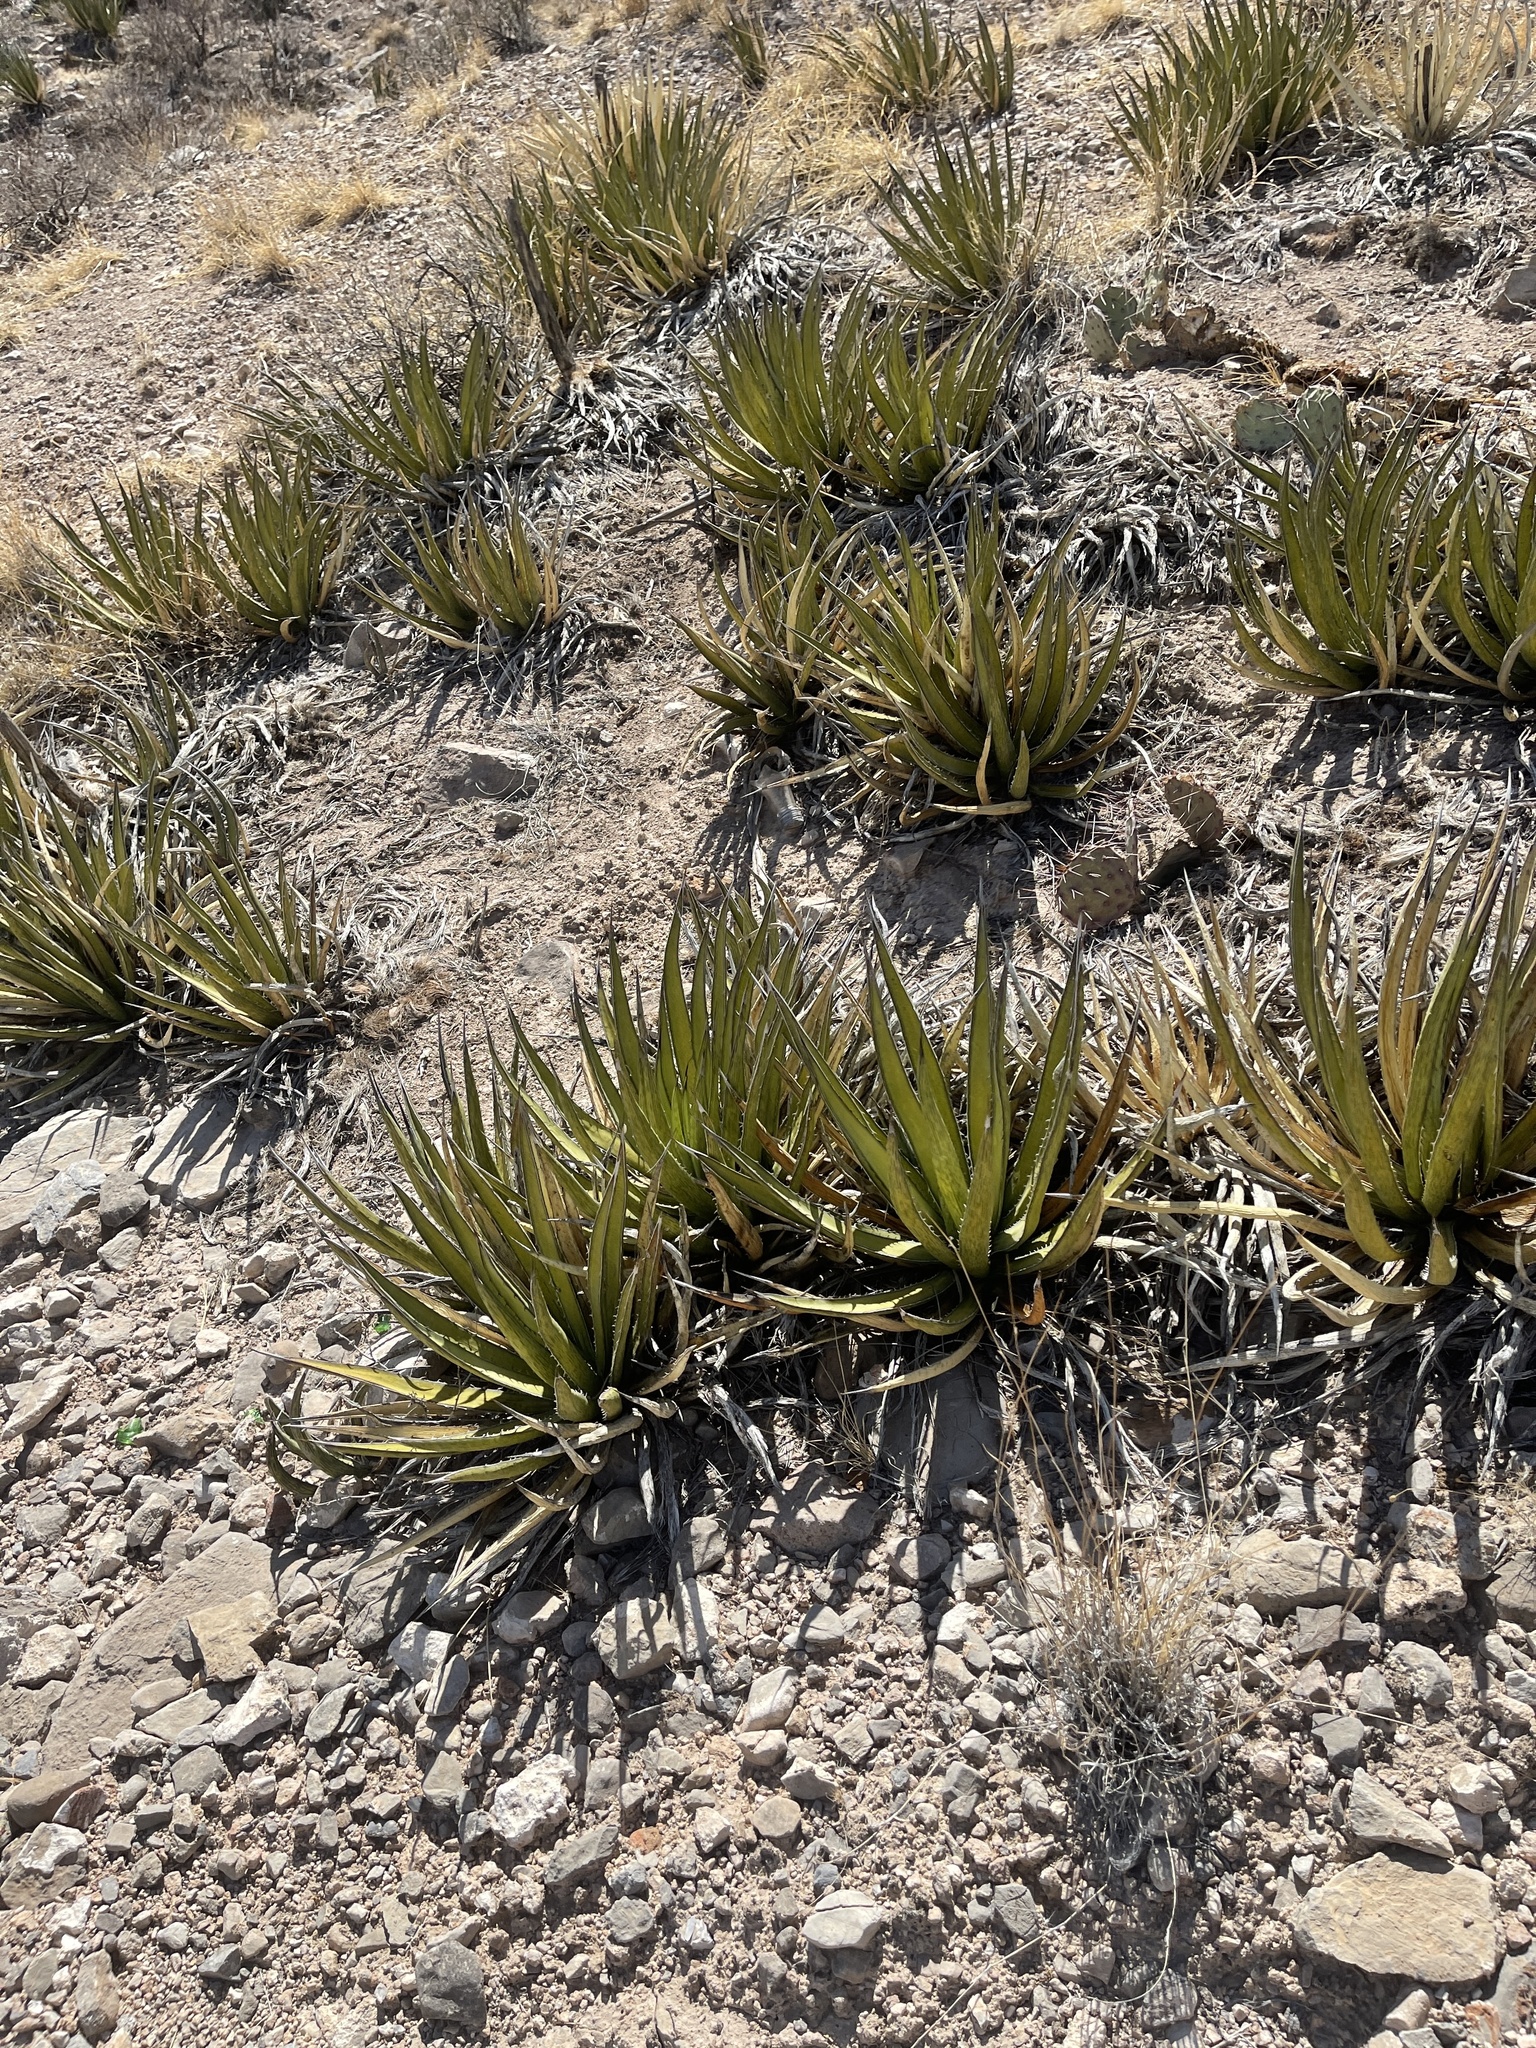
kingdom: Plantae
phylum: Tracheophyta
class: Liliopsida
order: Asparagales
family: Asparagaceae
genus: Agave
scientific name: Agave lechuguilla
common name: Lecheguilla agave
